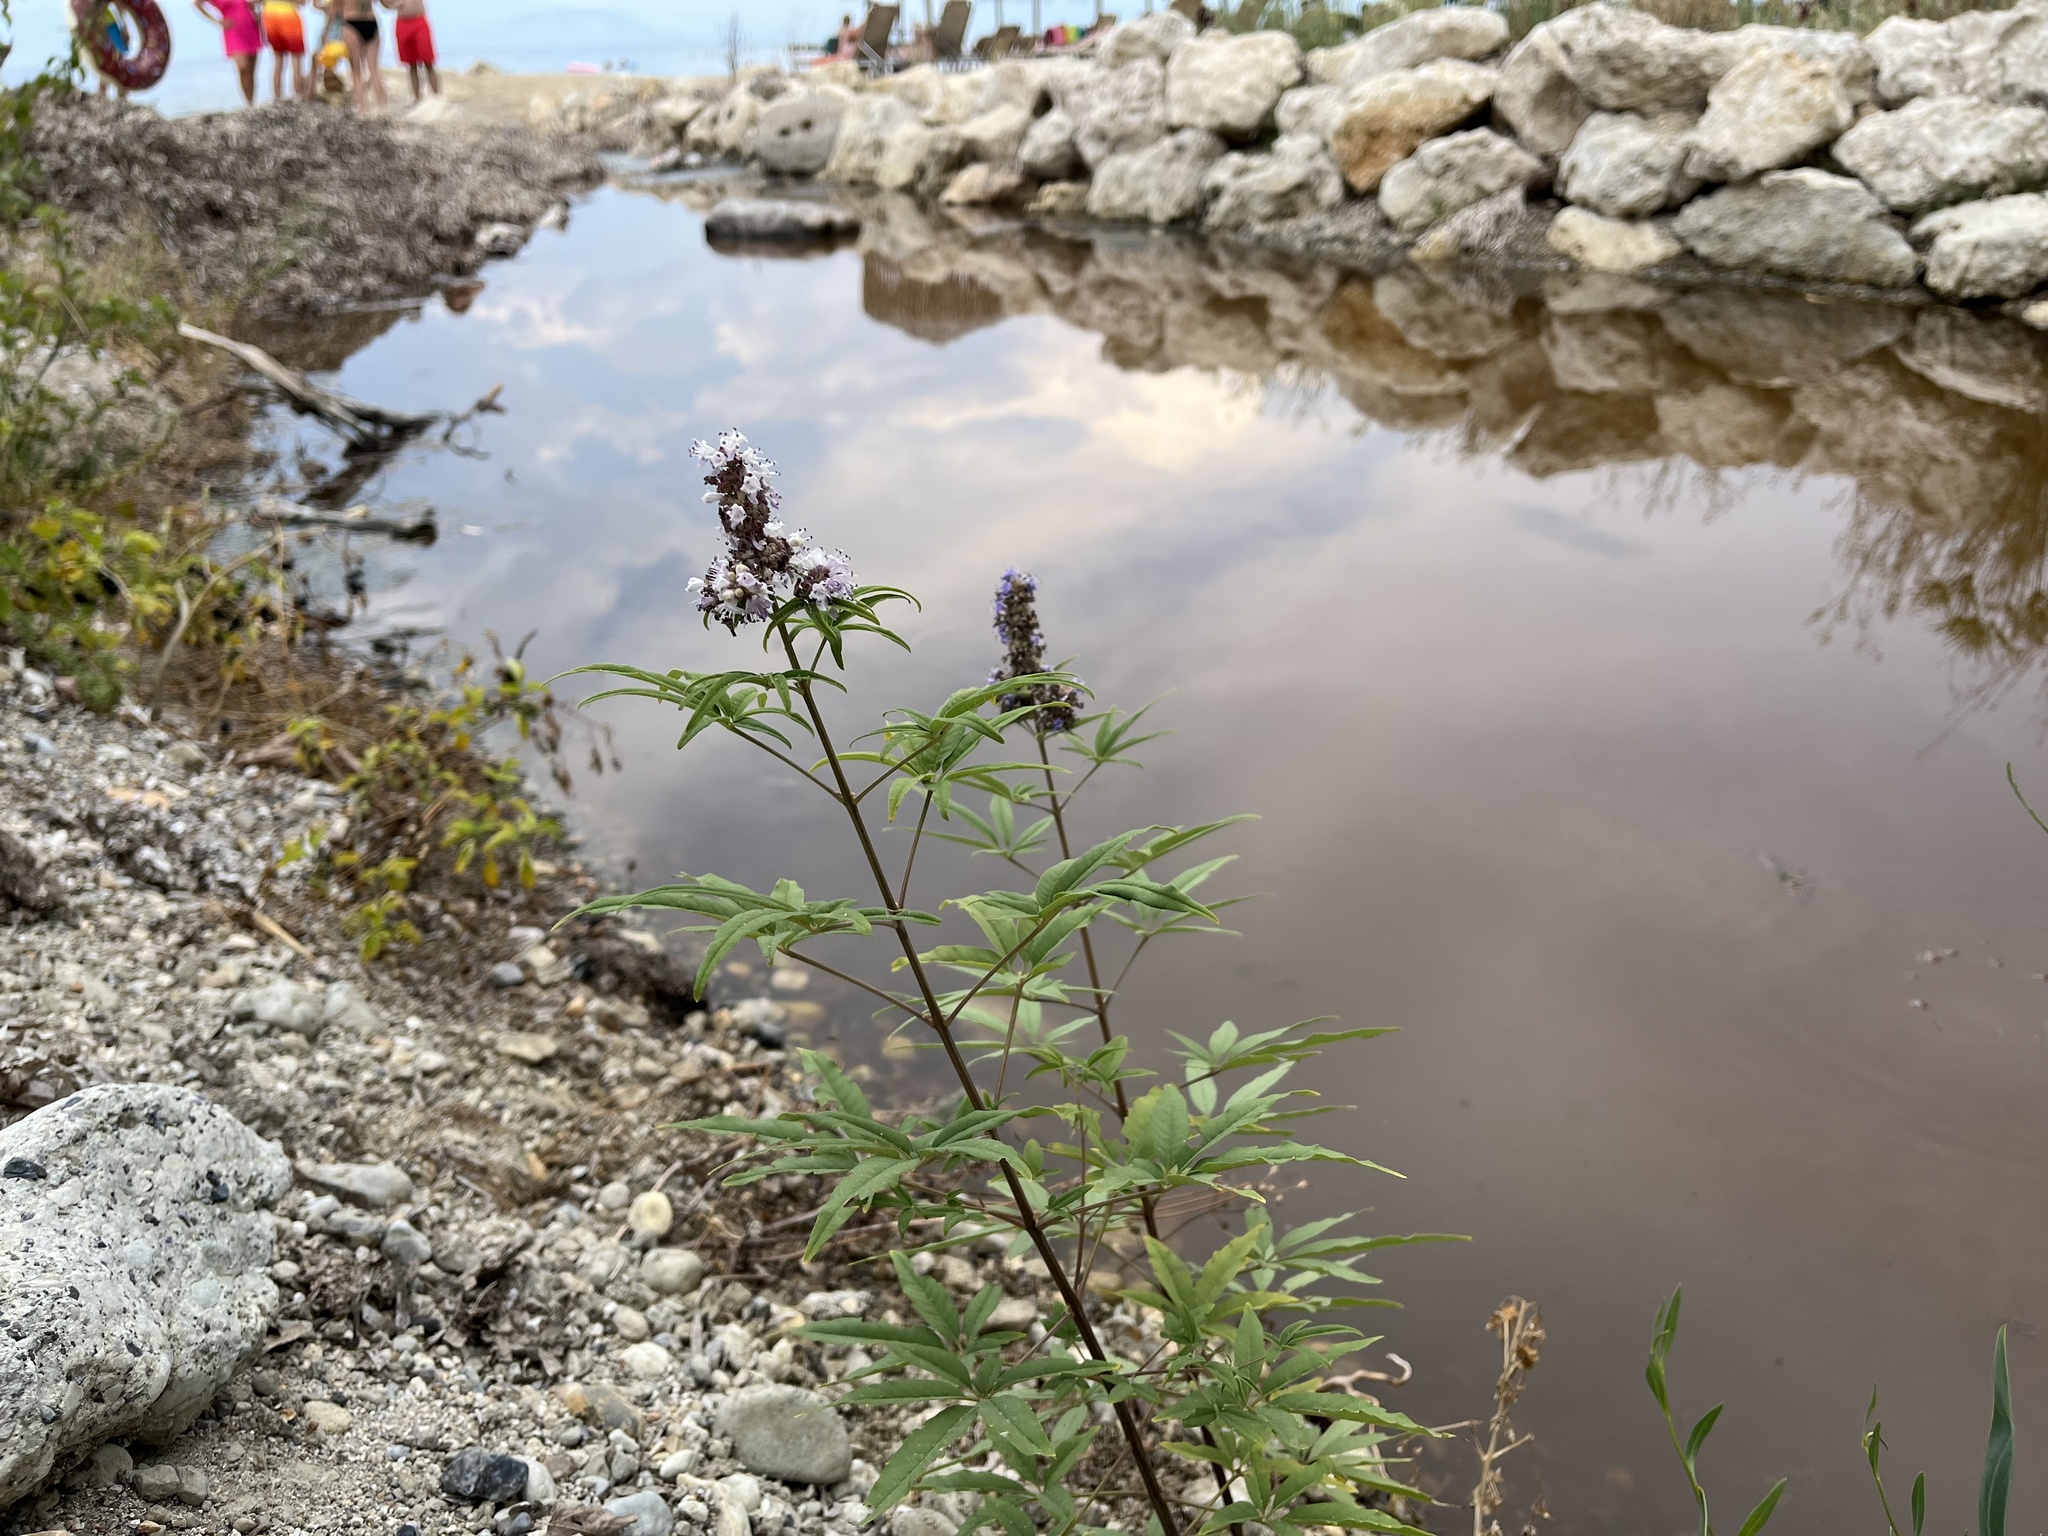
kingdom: Plantae
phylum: Tracheophyta
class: Magnoliopsida
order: Lamiales
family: Lamiaceae
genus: Vitex
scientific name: Vitex agnus-castus
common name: Chasteberry
